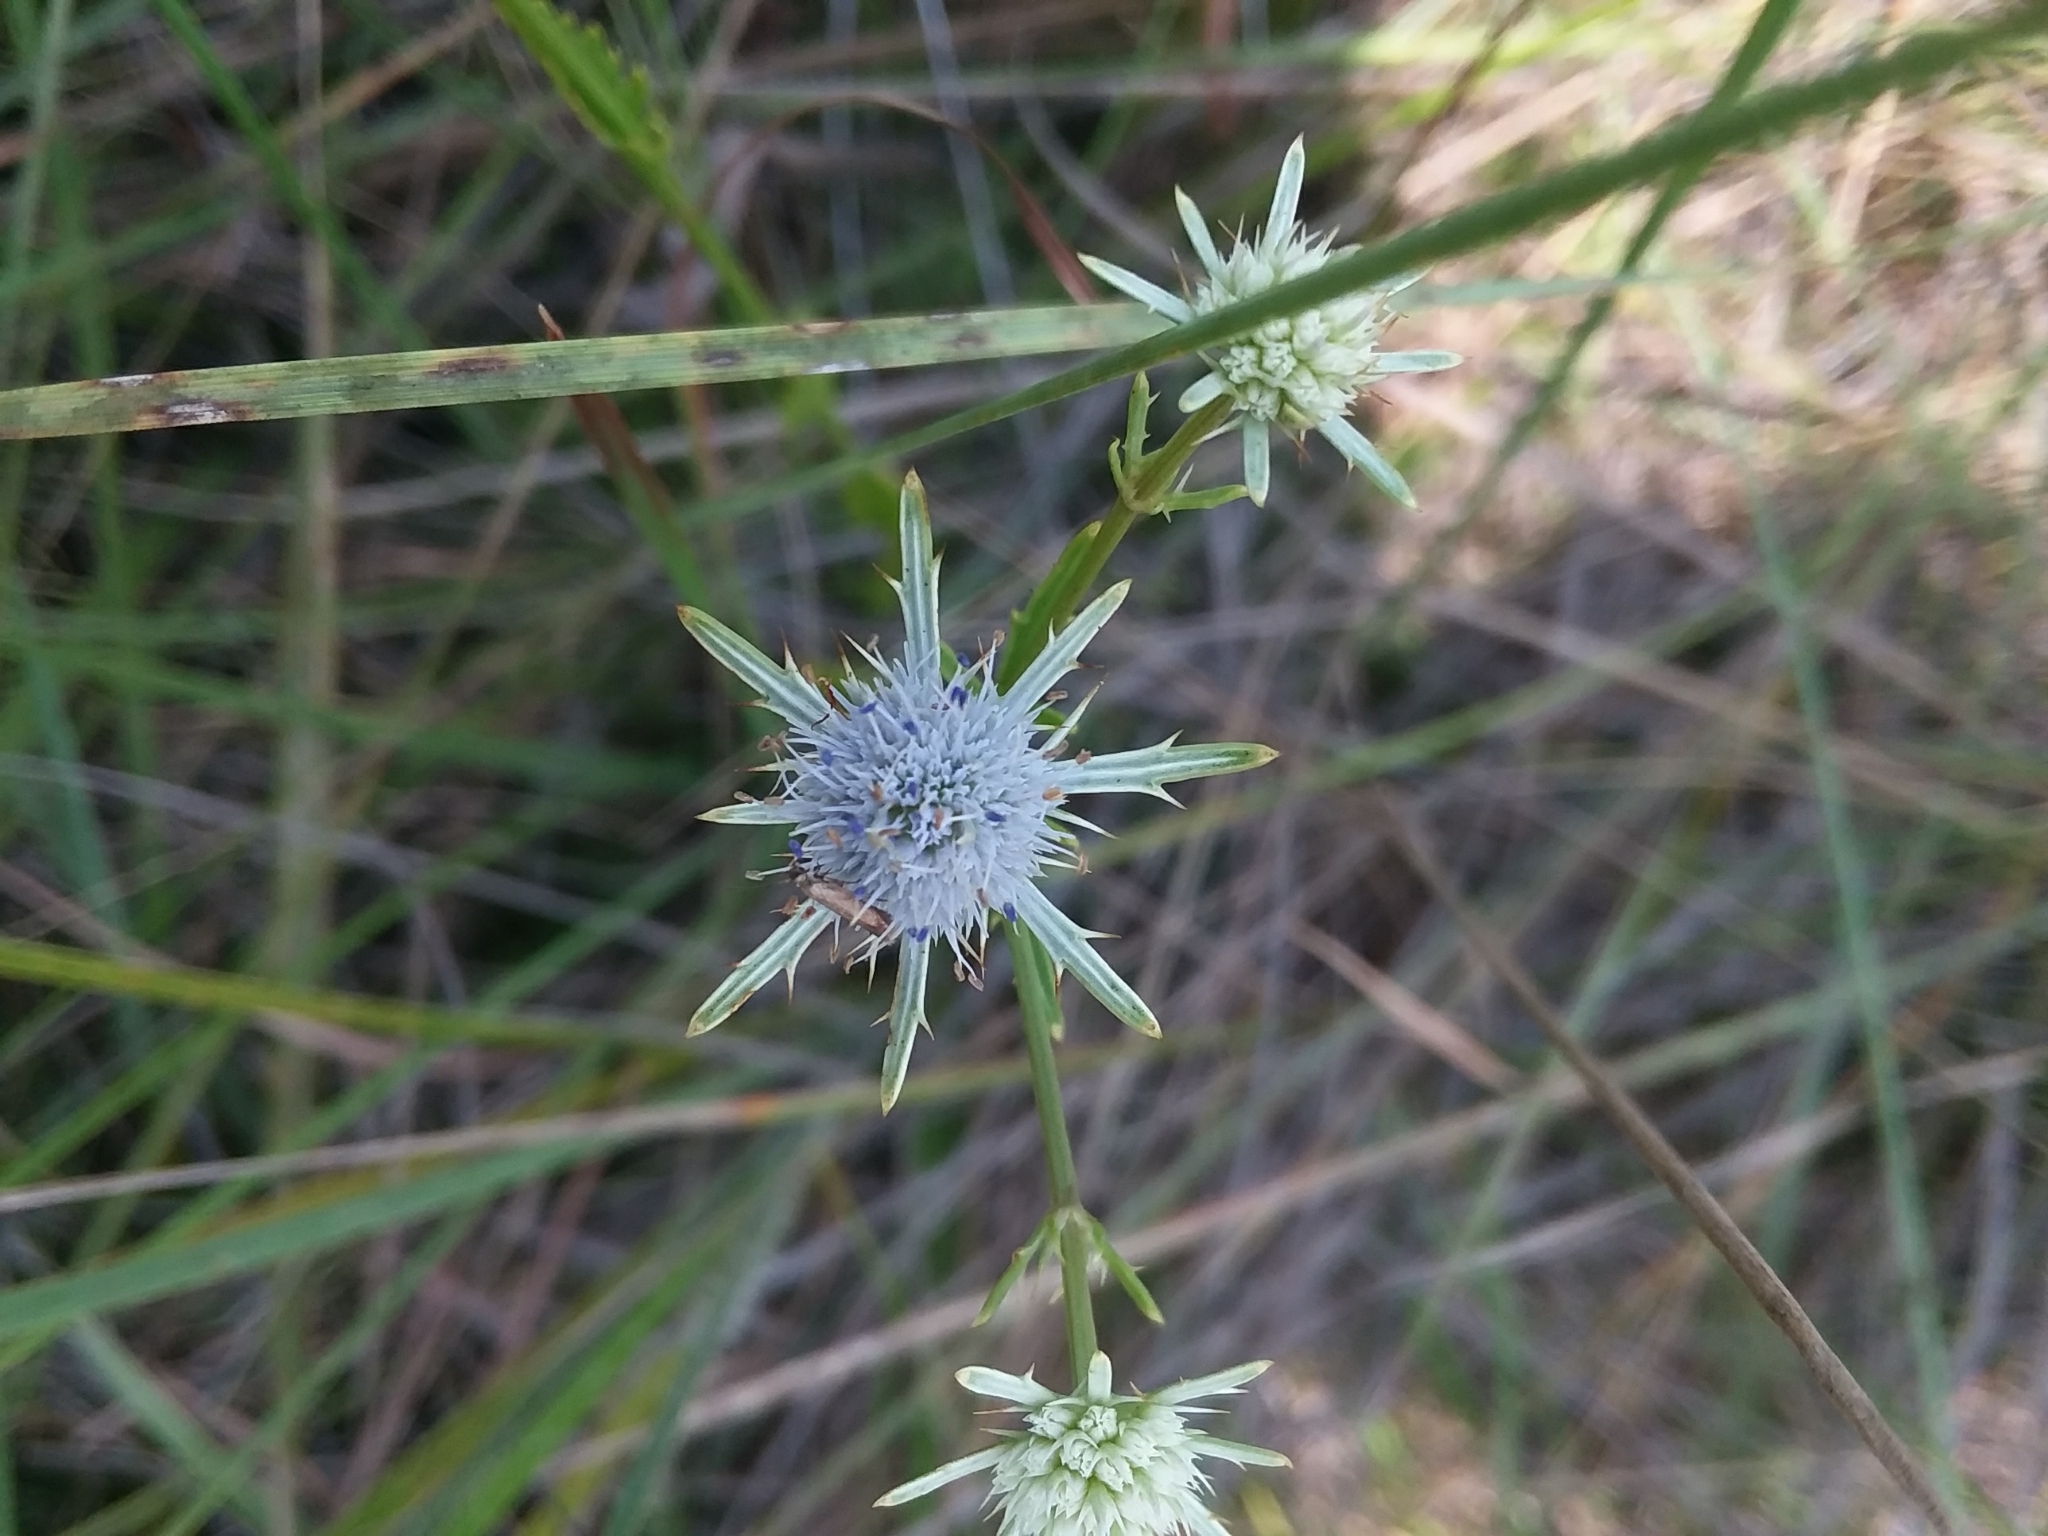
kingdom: Plantae
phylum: Tracheophyta
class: Magnoliopsida
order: Apiales
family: Apiaceae
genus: Eryngium
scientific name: Eryngium integrifolium
